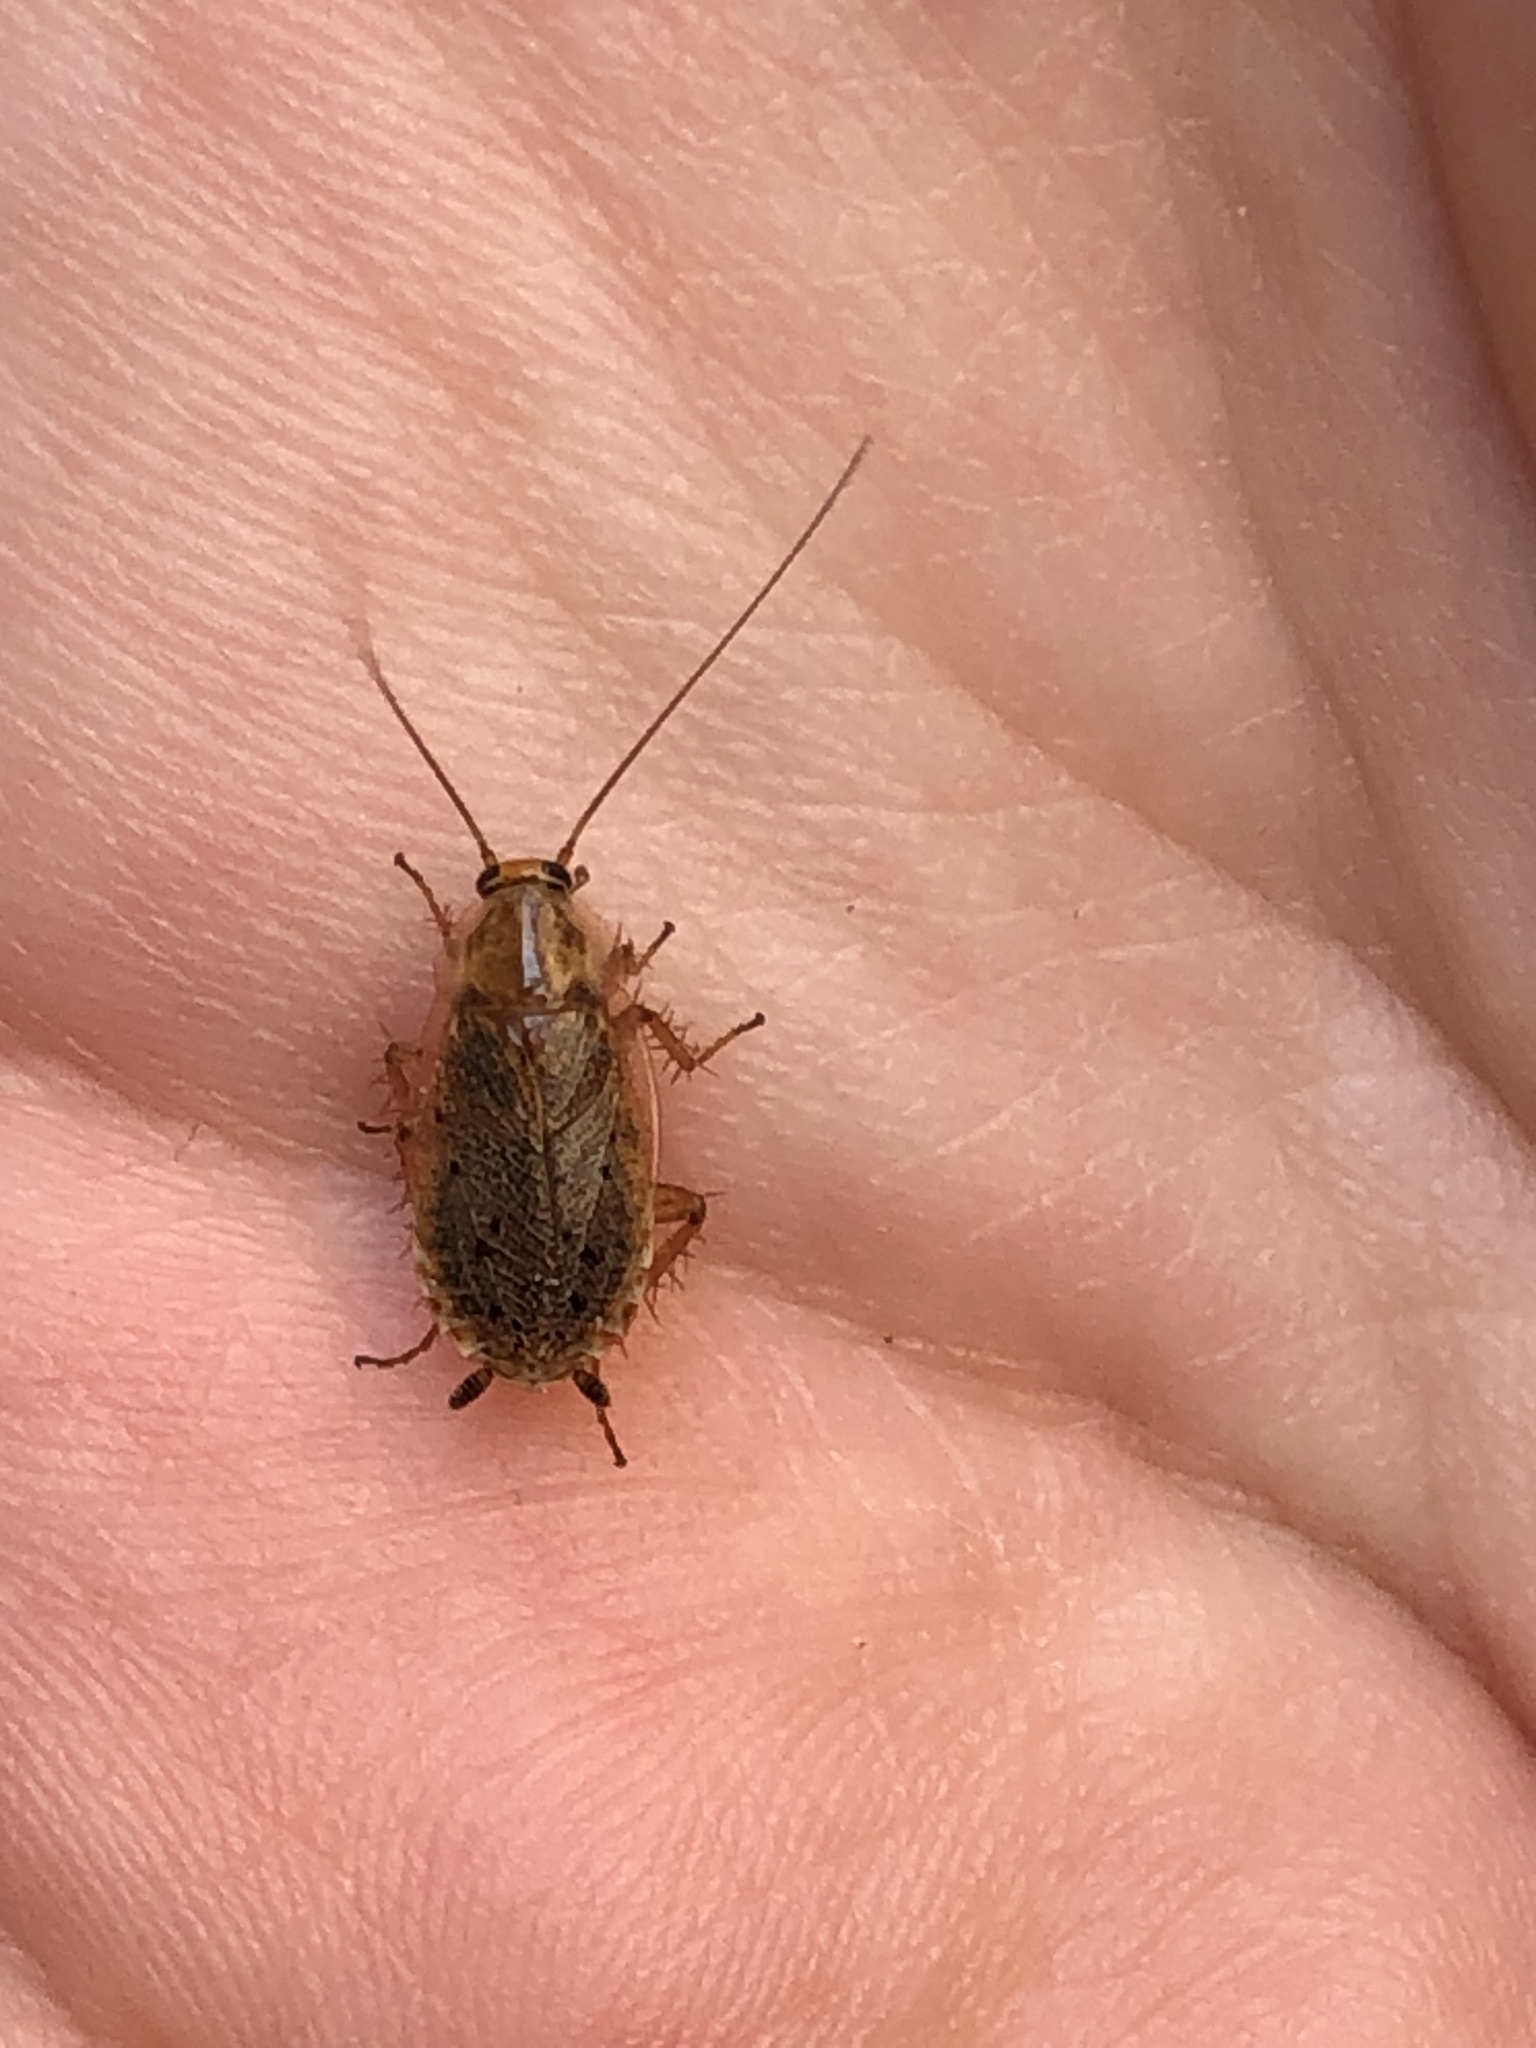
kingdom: Animalia
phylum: Arthropoda
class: Insecta
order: Blattodea
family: Ectobiidae
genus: Ectobius
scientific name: Ectobius lapponicus
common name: Dusky cockroach
